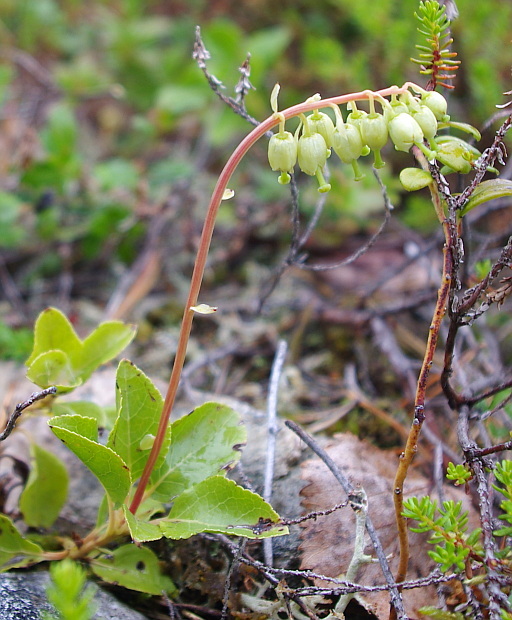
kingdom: Plantae
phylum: Tracheophyta
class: Magnoliopsida
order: Ericales
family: Ericaceae
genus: Orthilia
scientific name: Orthilia secunda
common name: One-sided orthilia
